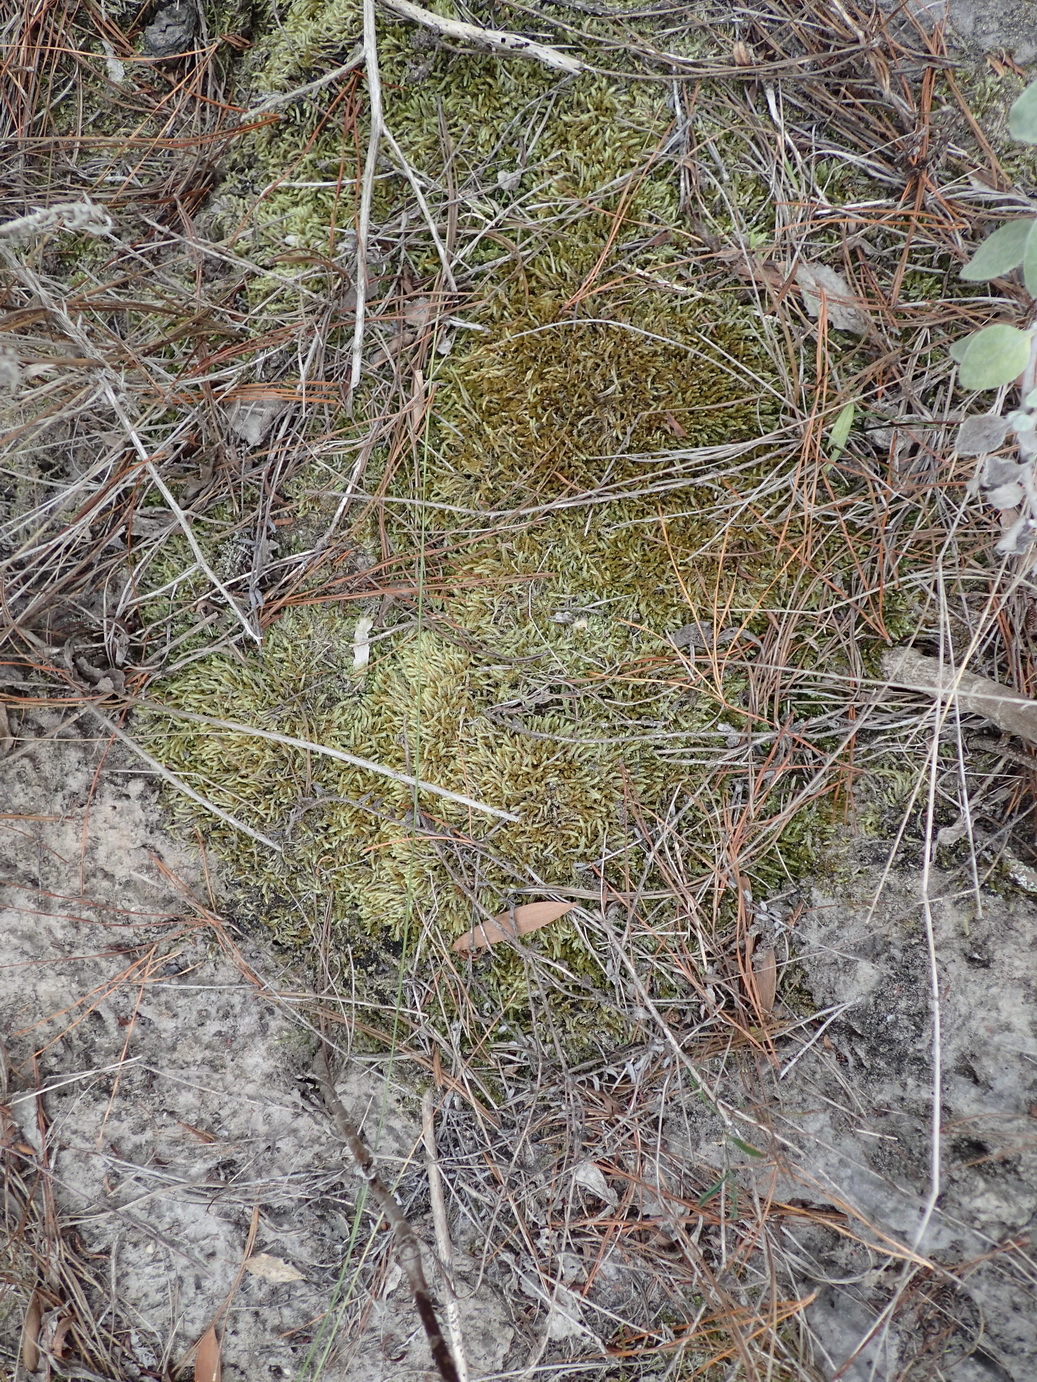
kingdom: Plantae
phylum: Bryophyta
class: Bryopsida
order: Hypnales
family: Catagoniaceae
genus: Catagonium
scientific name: Catagonium nitens
